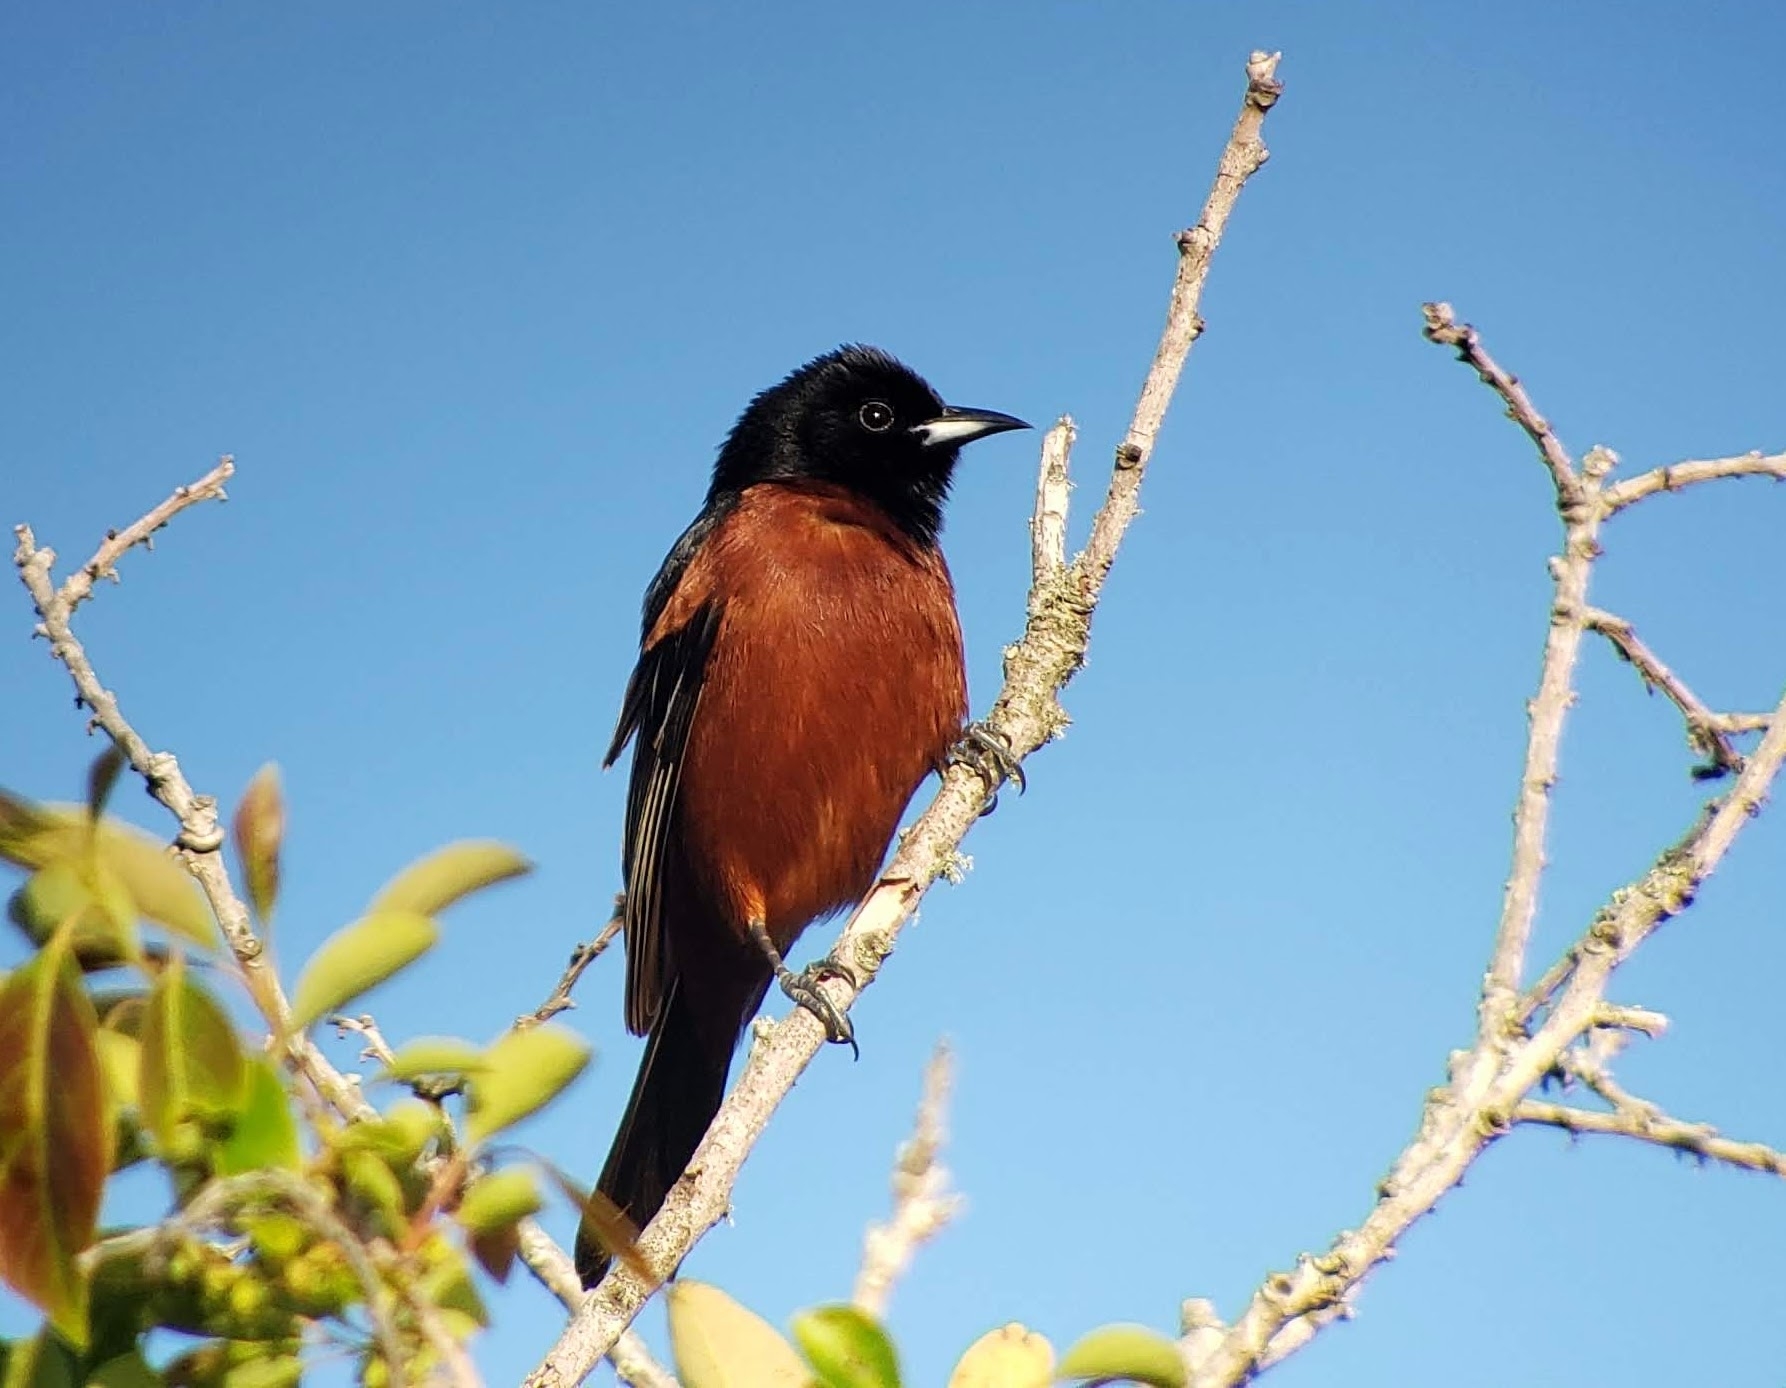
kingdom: Animalia
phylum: Chordata
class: Aves
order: Passeriformes
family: Icteridae
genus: Icterus
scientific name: Icterus spurius
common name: Orchard oriole
